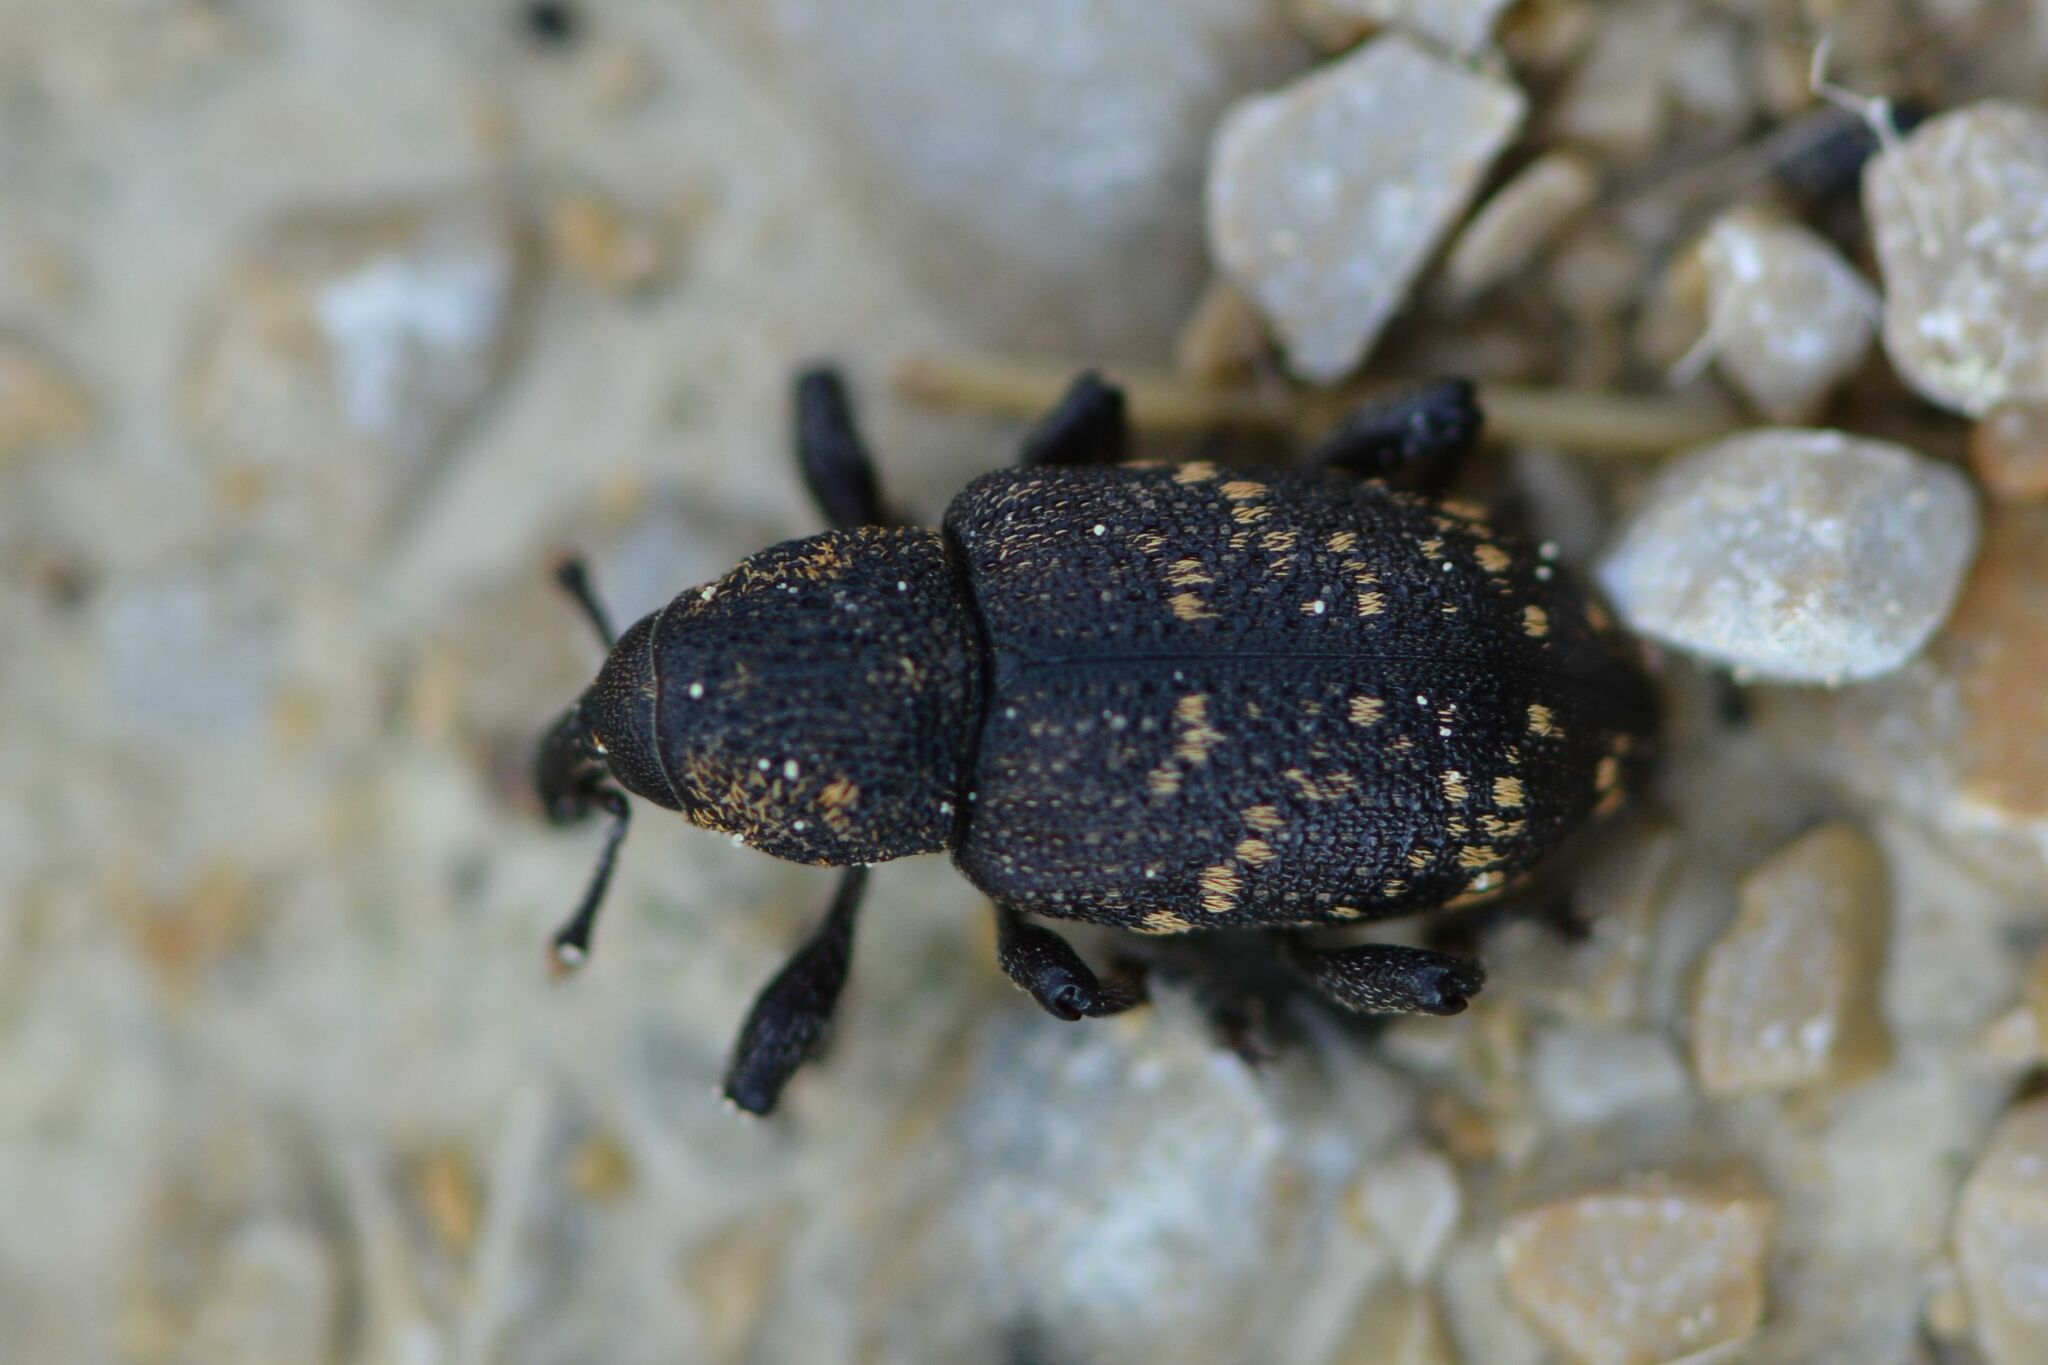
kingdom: Animalia
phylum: Arthropoda
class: Insecta
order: Coleoptera
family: Curculionidae
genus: Hylobius
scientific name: Hylobius abietis
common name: Large pine weevil
